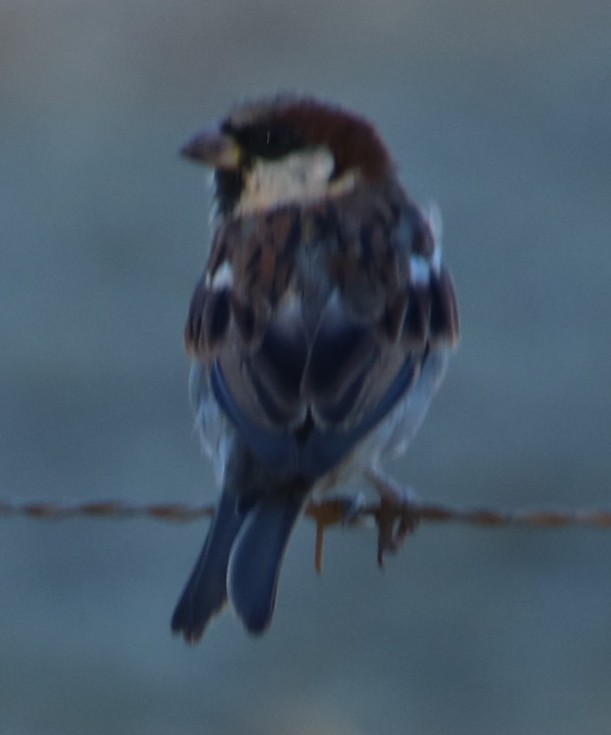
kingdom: Animalia
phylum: Chordata
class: Aves
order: Passeriformes
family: Passeridae
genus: Passer
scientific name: Passer domesticus
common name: House sparrow
